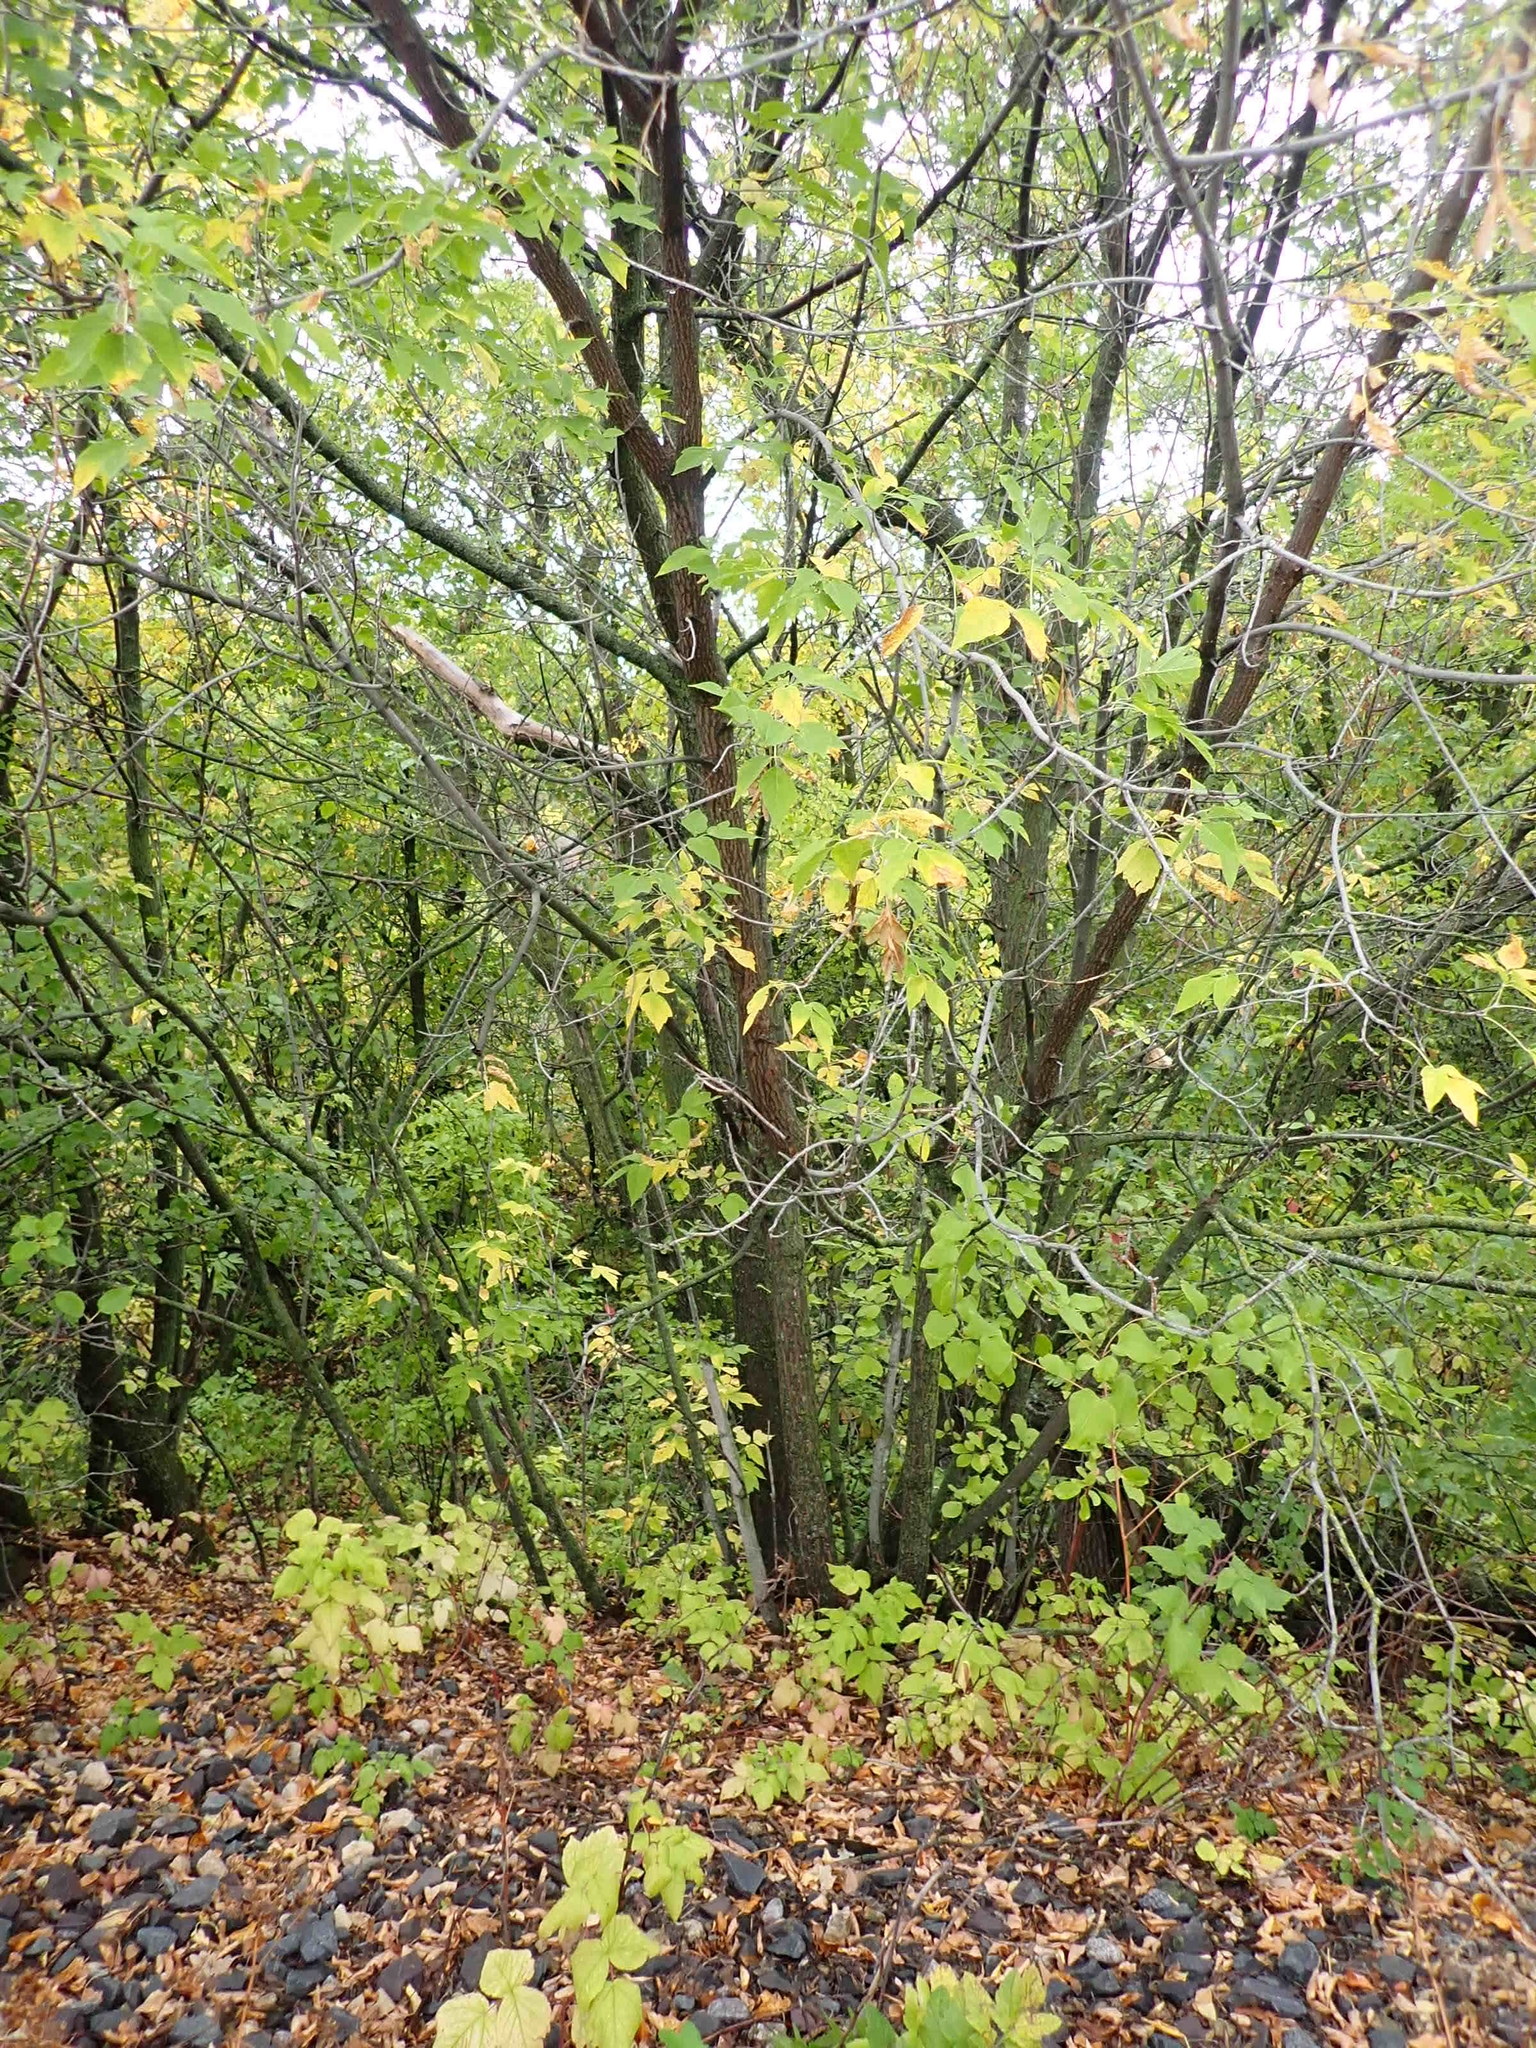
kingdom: Plantae
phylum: Tracheophyta
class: Magnoliopsida
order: Sapindales
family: Sapindaceae
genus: Acer
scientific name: Acer negundo
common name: Ashleaf maple
